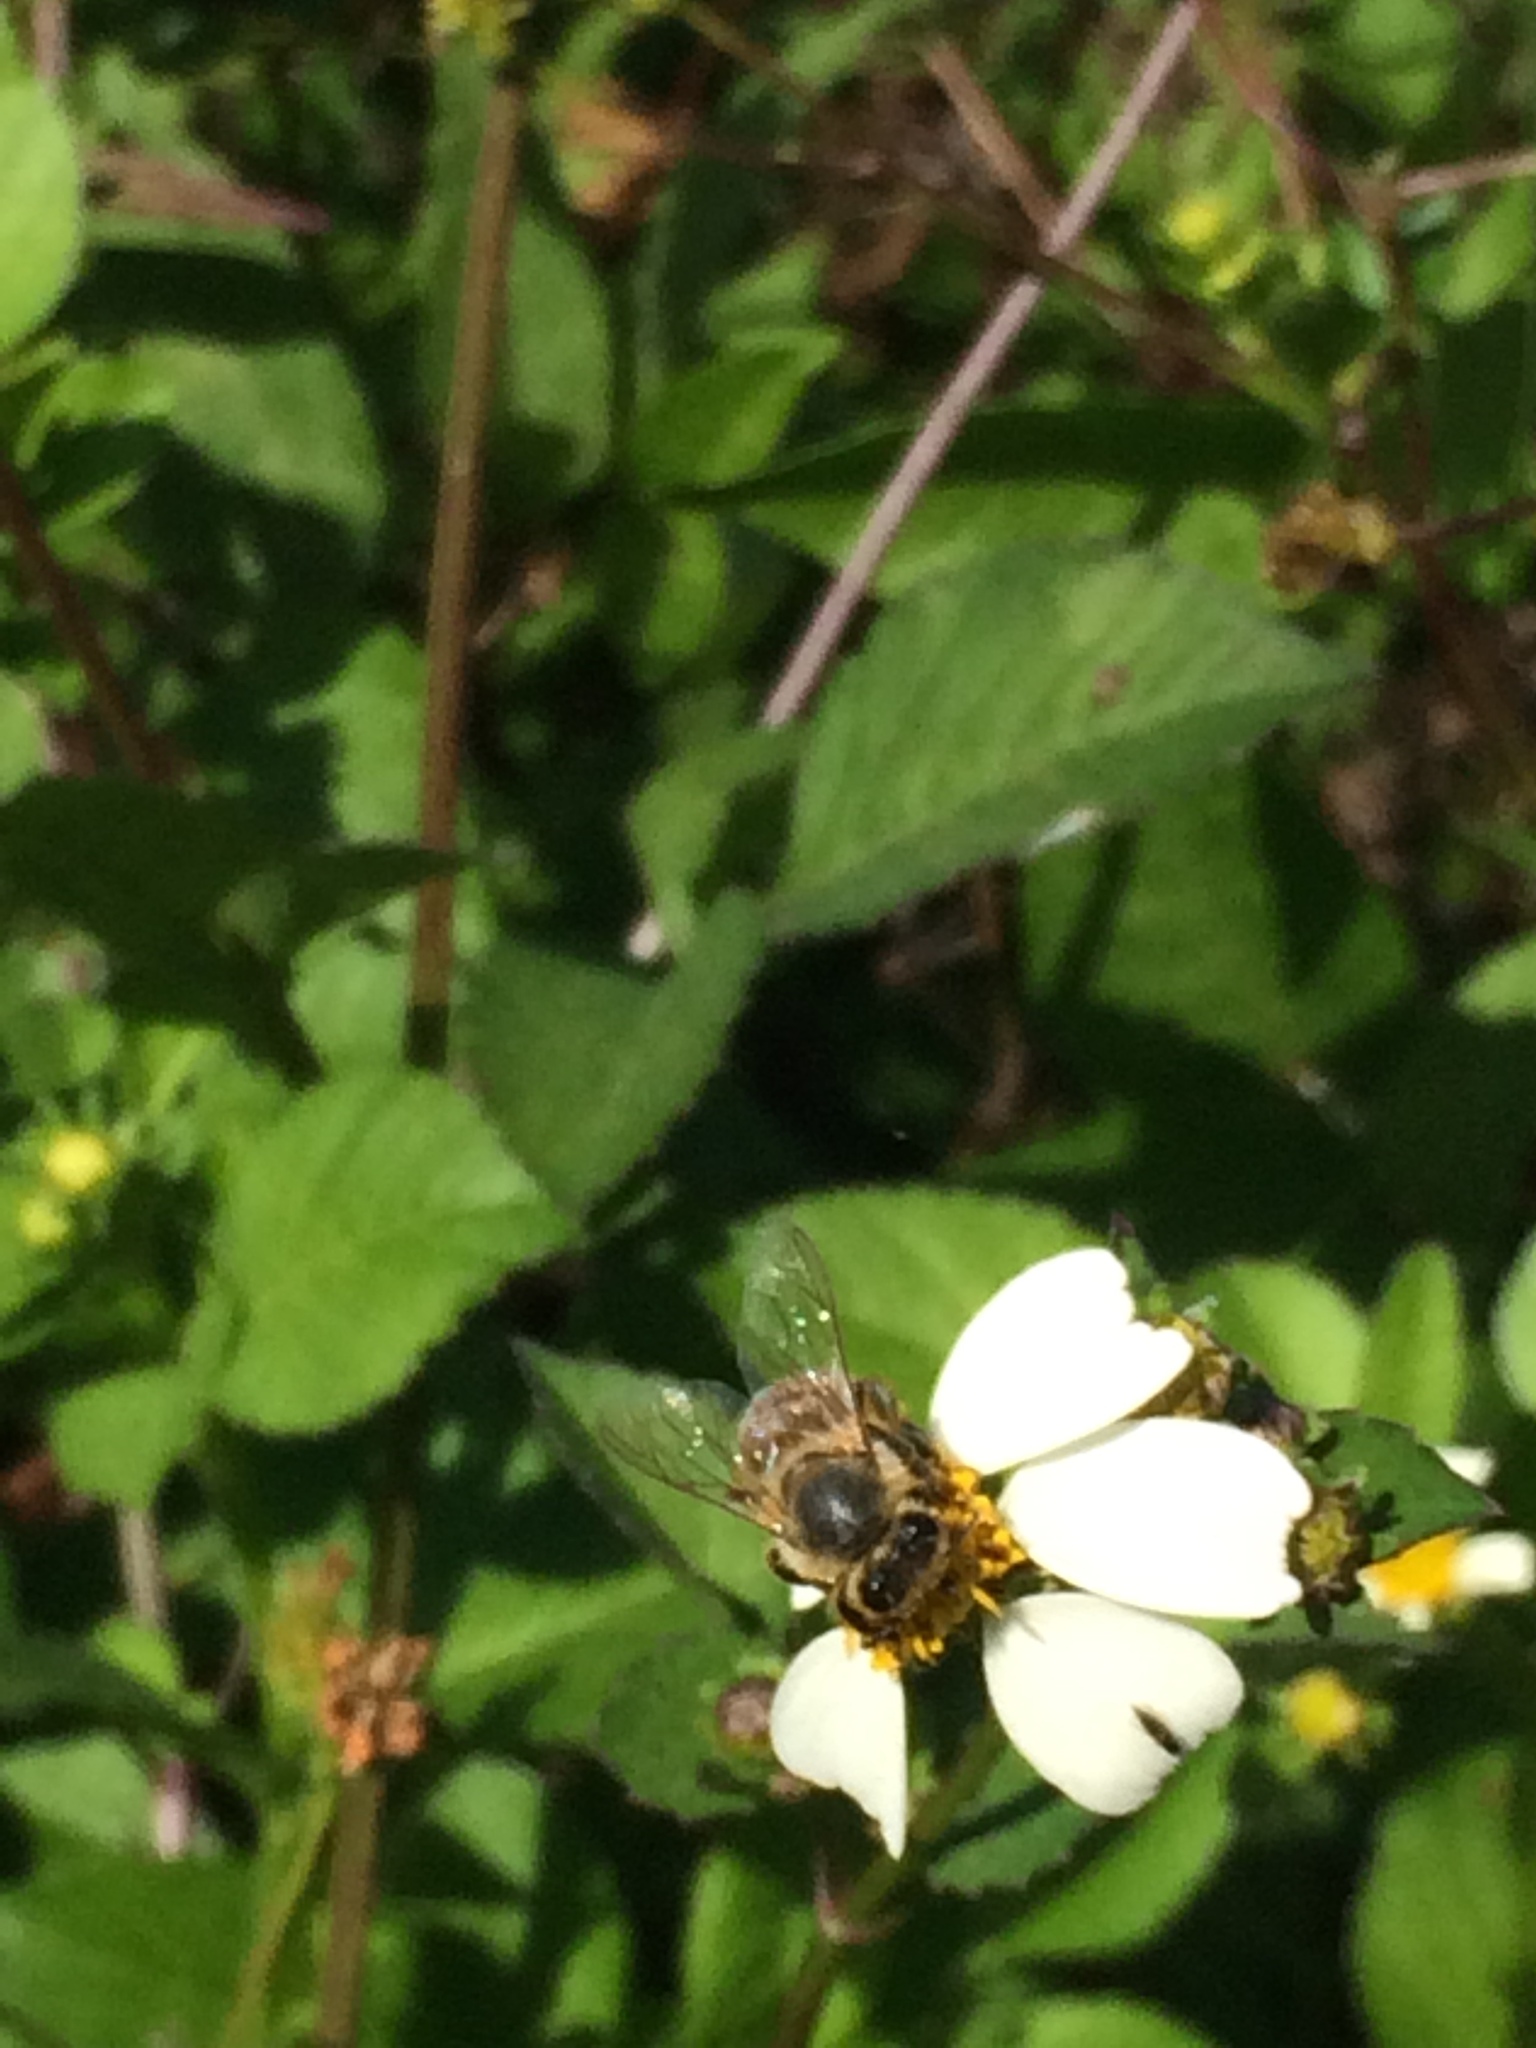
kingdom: Animalia
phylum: Arthropoda
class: Insecta
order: Hymenoptera
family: Apidae
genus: Apis
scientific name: Apis mellifera
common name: Honey bee
